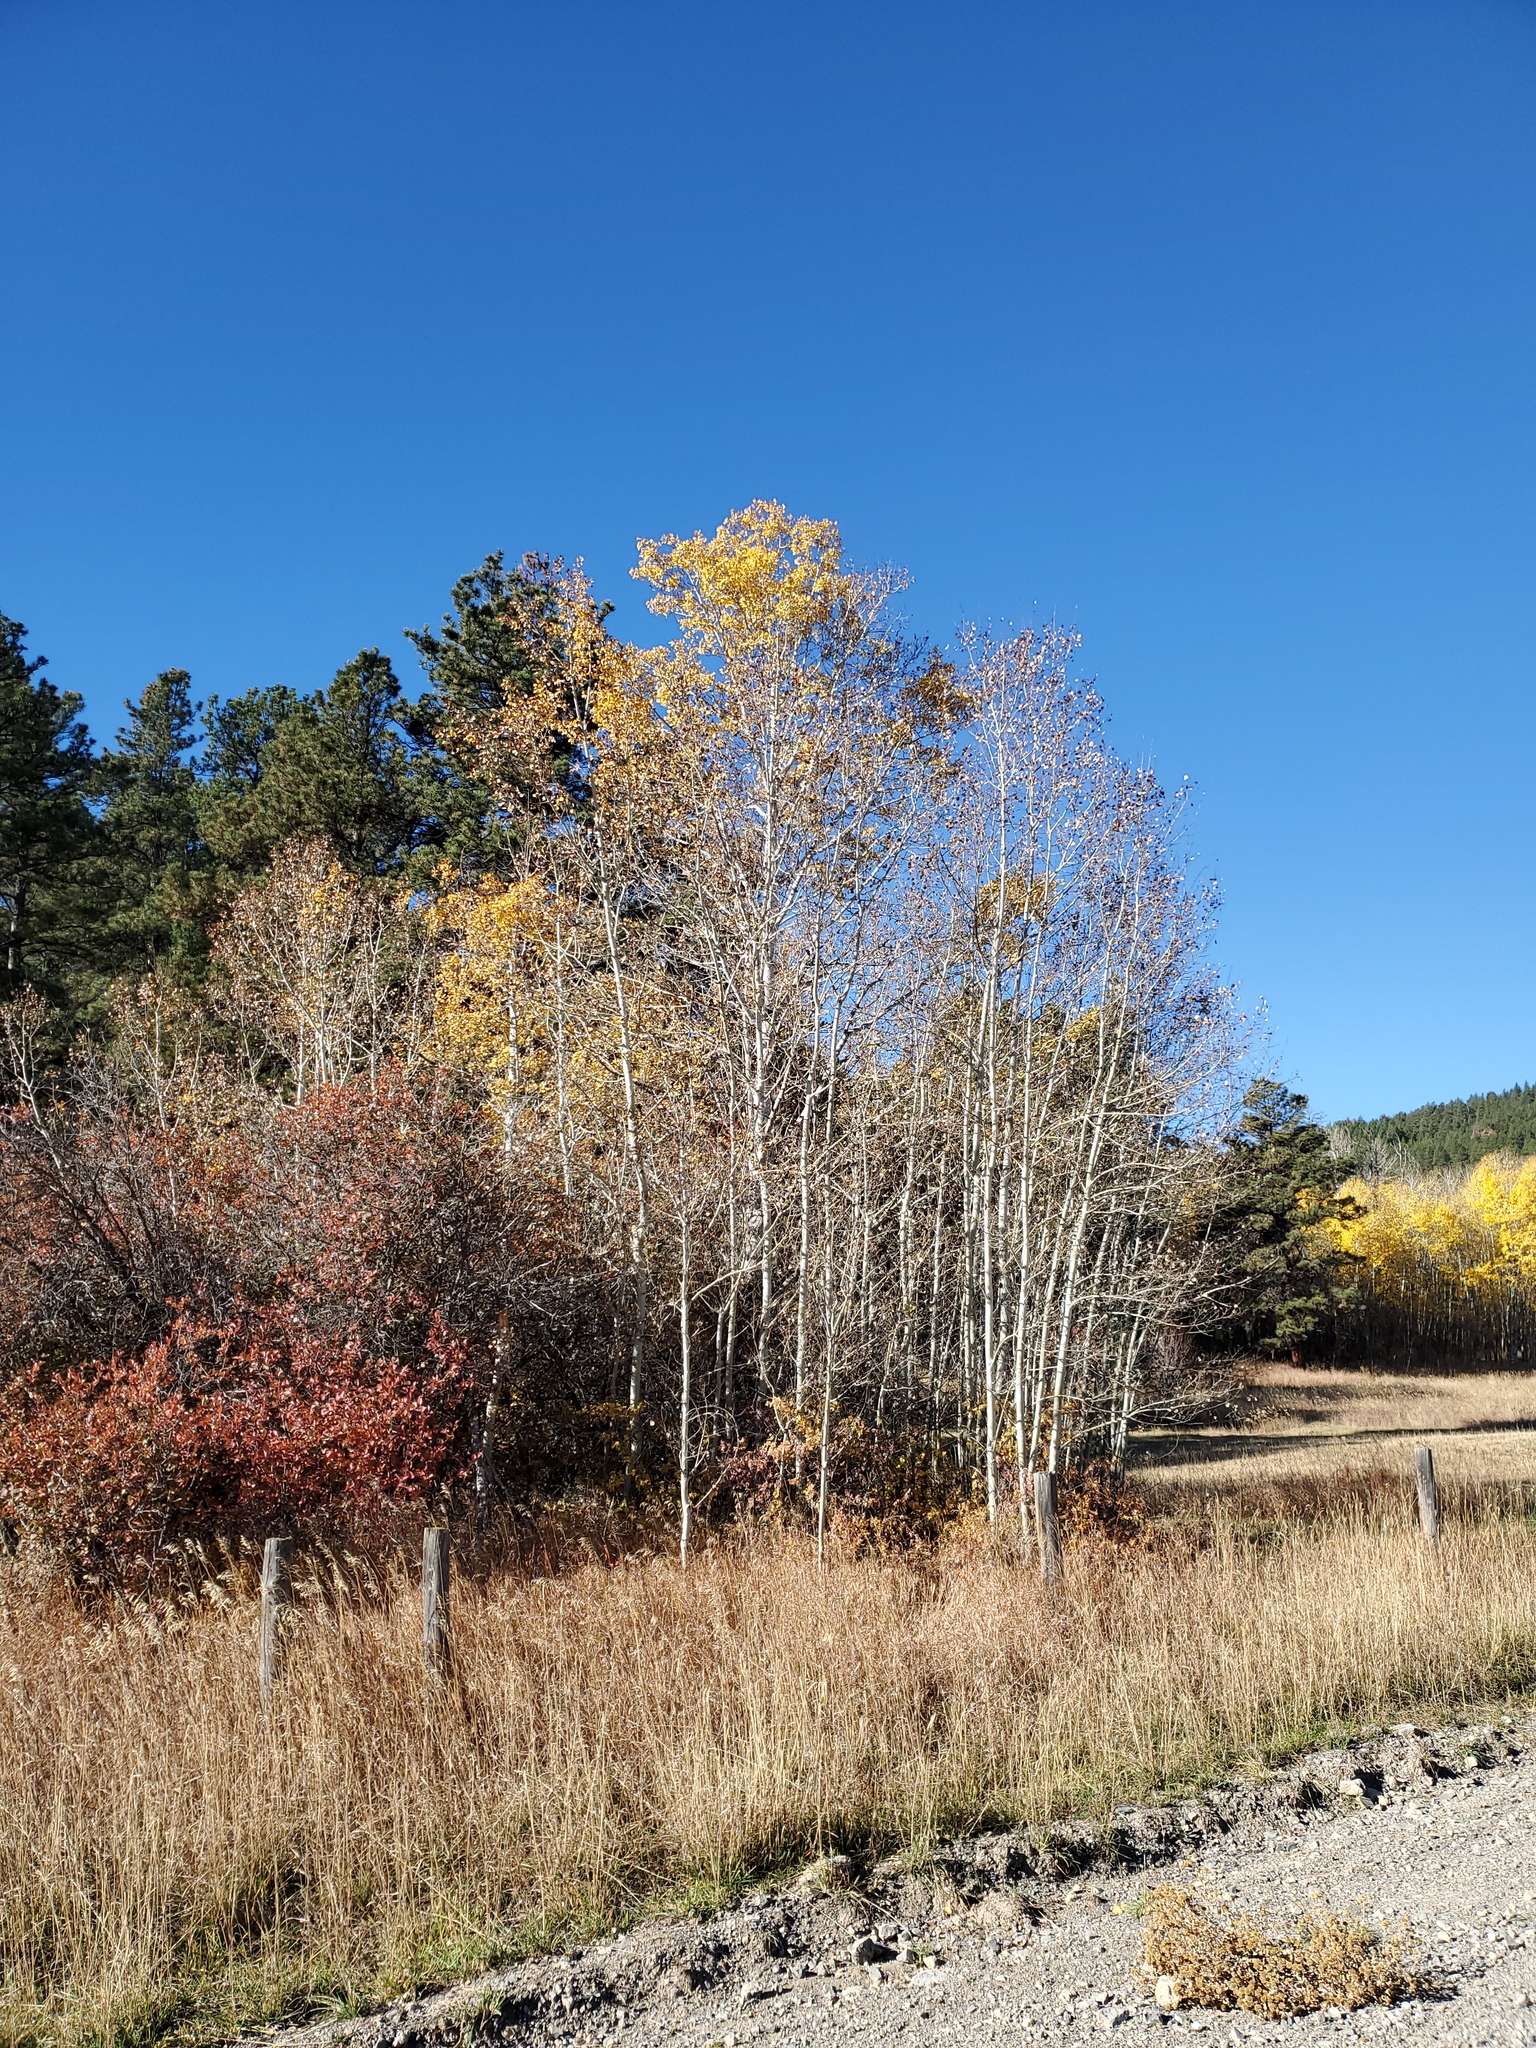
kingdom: Plantae
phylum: Tracheophyta
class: Magnoliopsida
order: Malpighiales
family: Salicaceae
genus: Populus
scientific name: Populus tremuloides
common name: Quaking aspen
